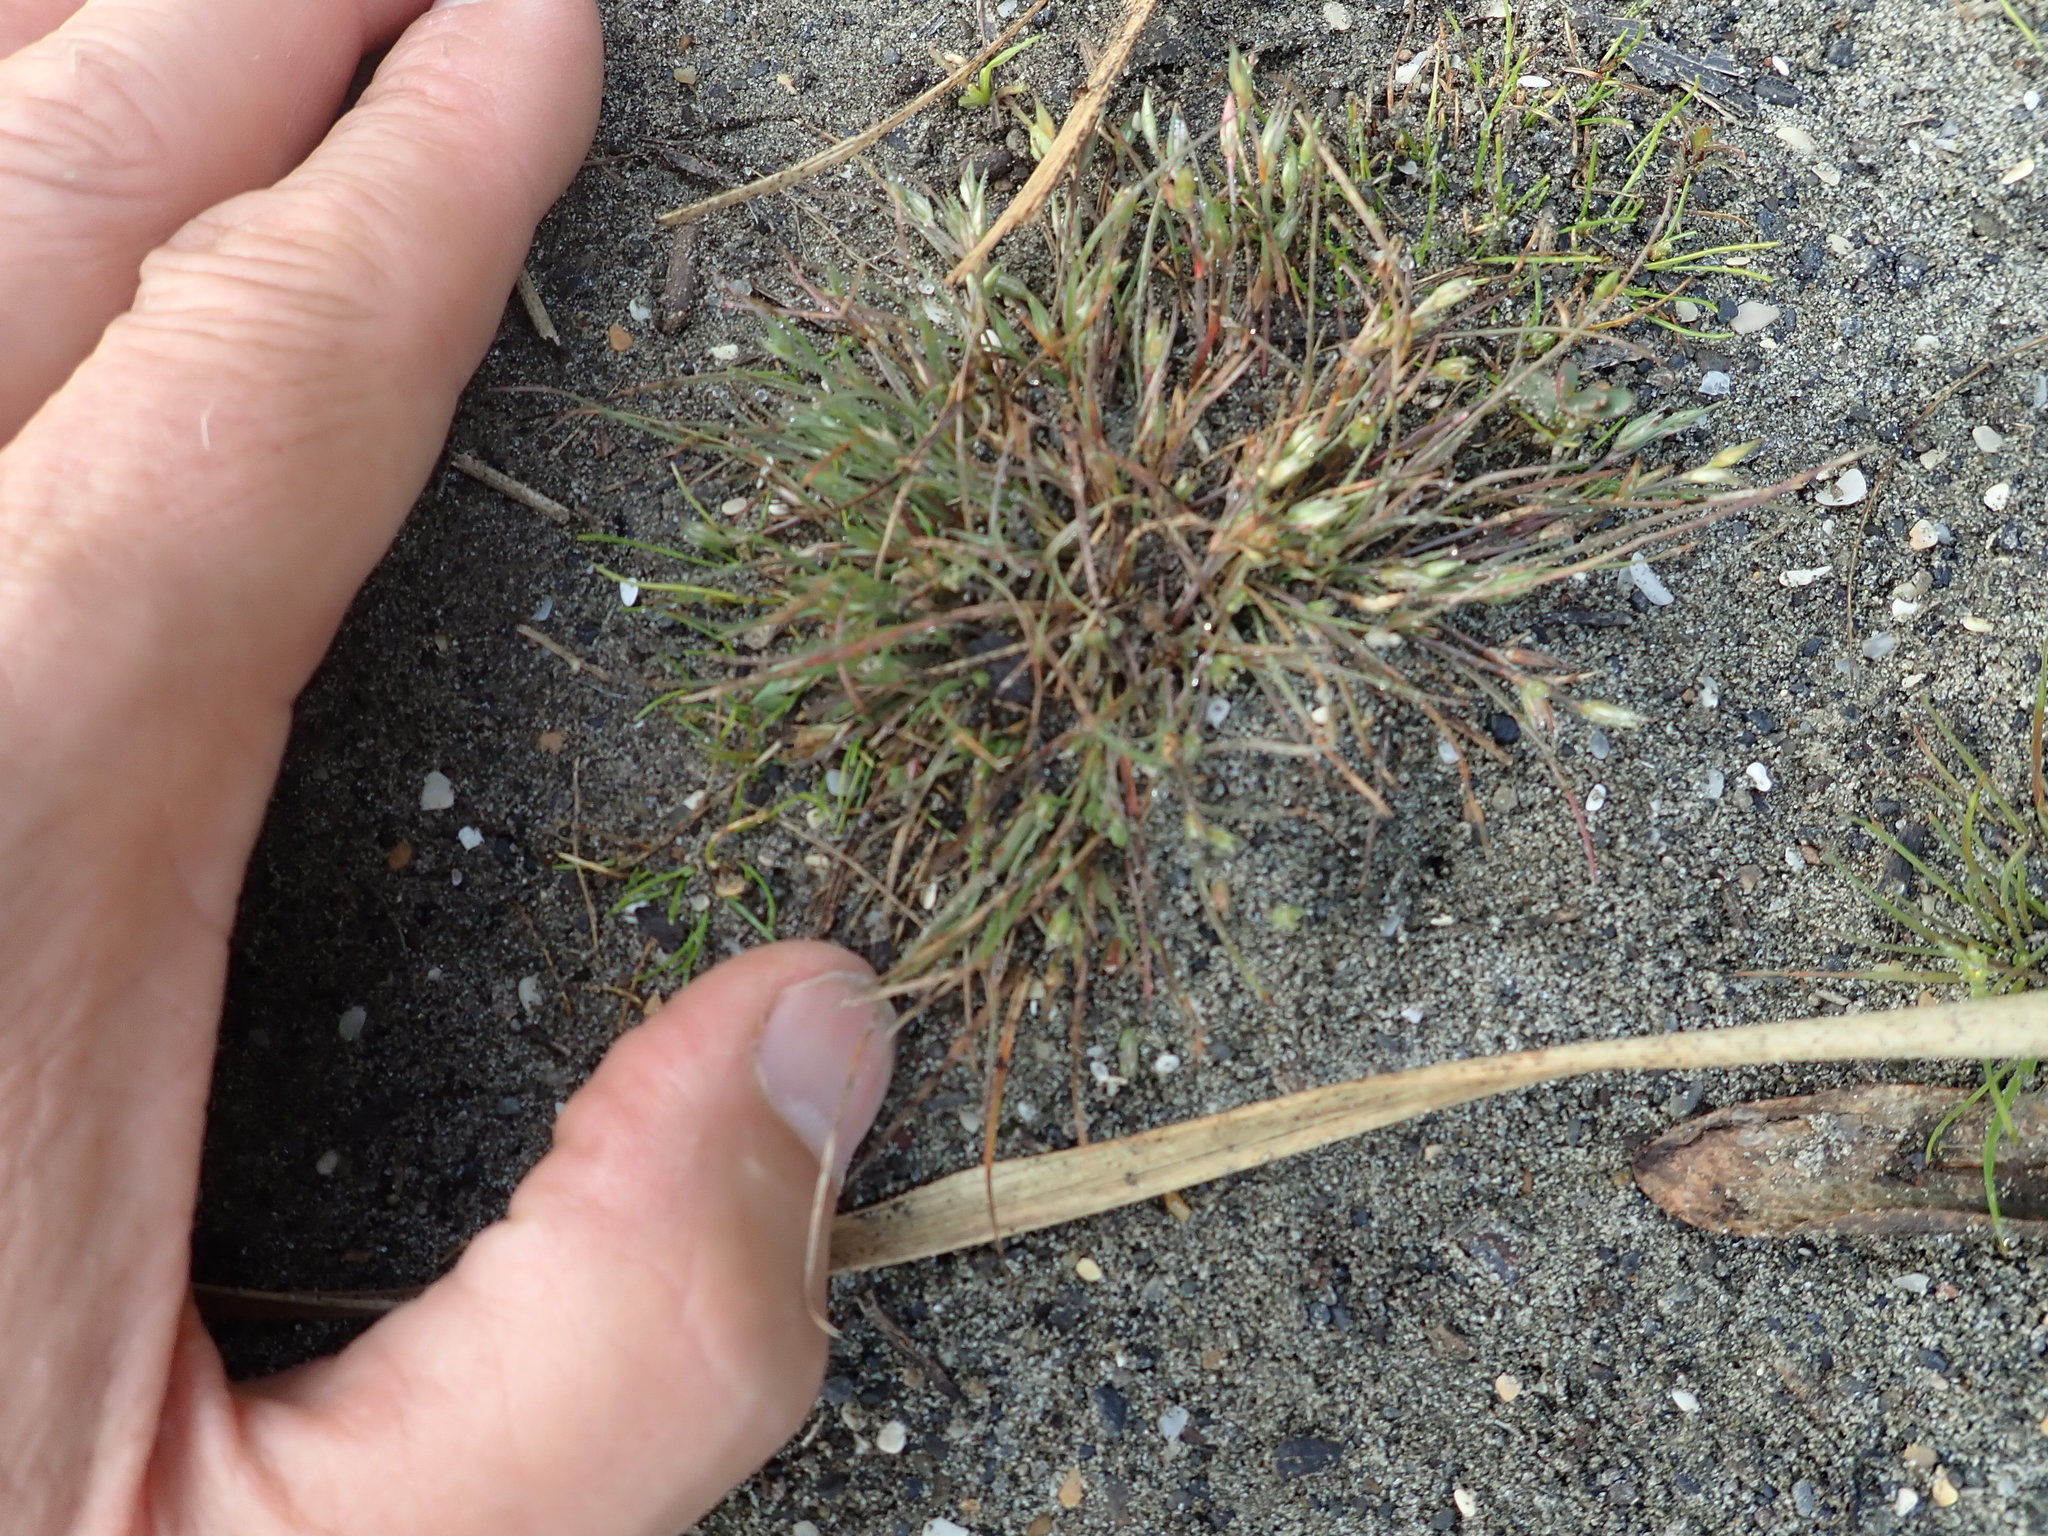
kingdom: Plantae
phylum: Tracheophyta
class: Liliopsida
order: Poales
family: Juncaceae
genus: Juncus
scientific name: Juncus bufonius
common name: Toad rush
